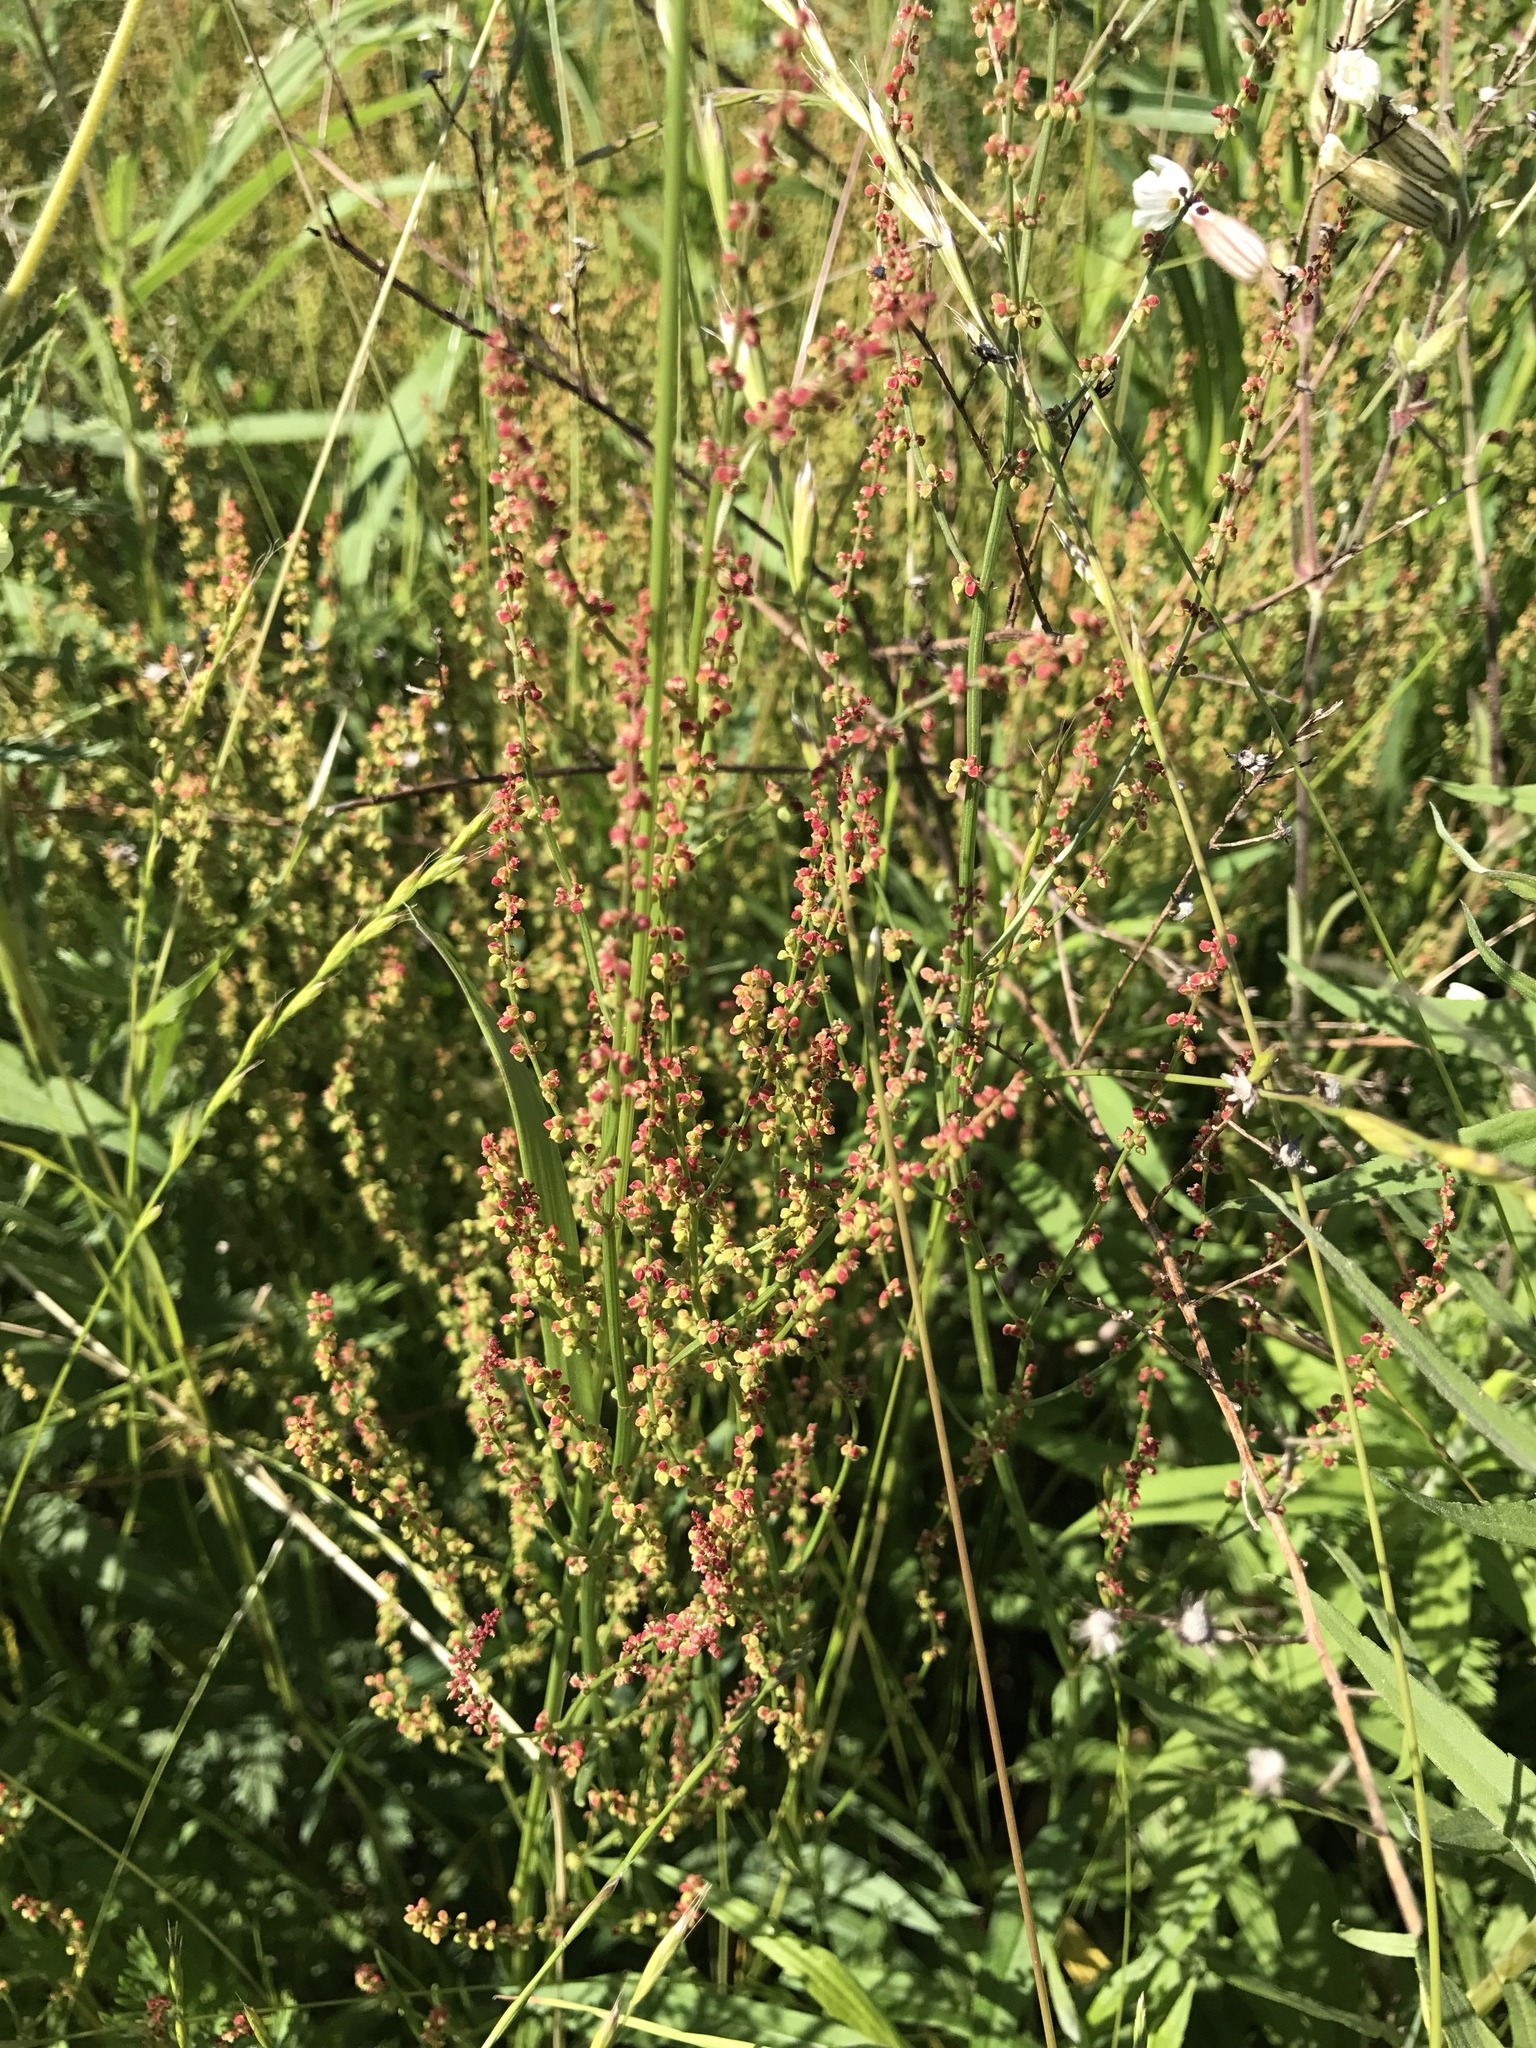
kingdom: Plantae
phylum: Tracheophyta
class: Magnoliopsida
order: Caryophyllales
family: Polygonaceae
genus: Rumex
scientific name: Rumex acetosella
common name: Common sheep sorrel
